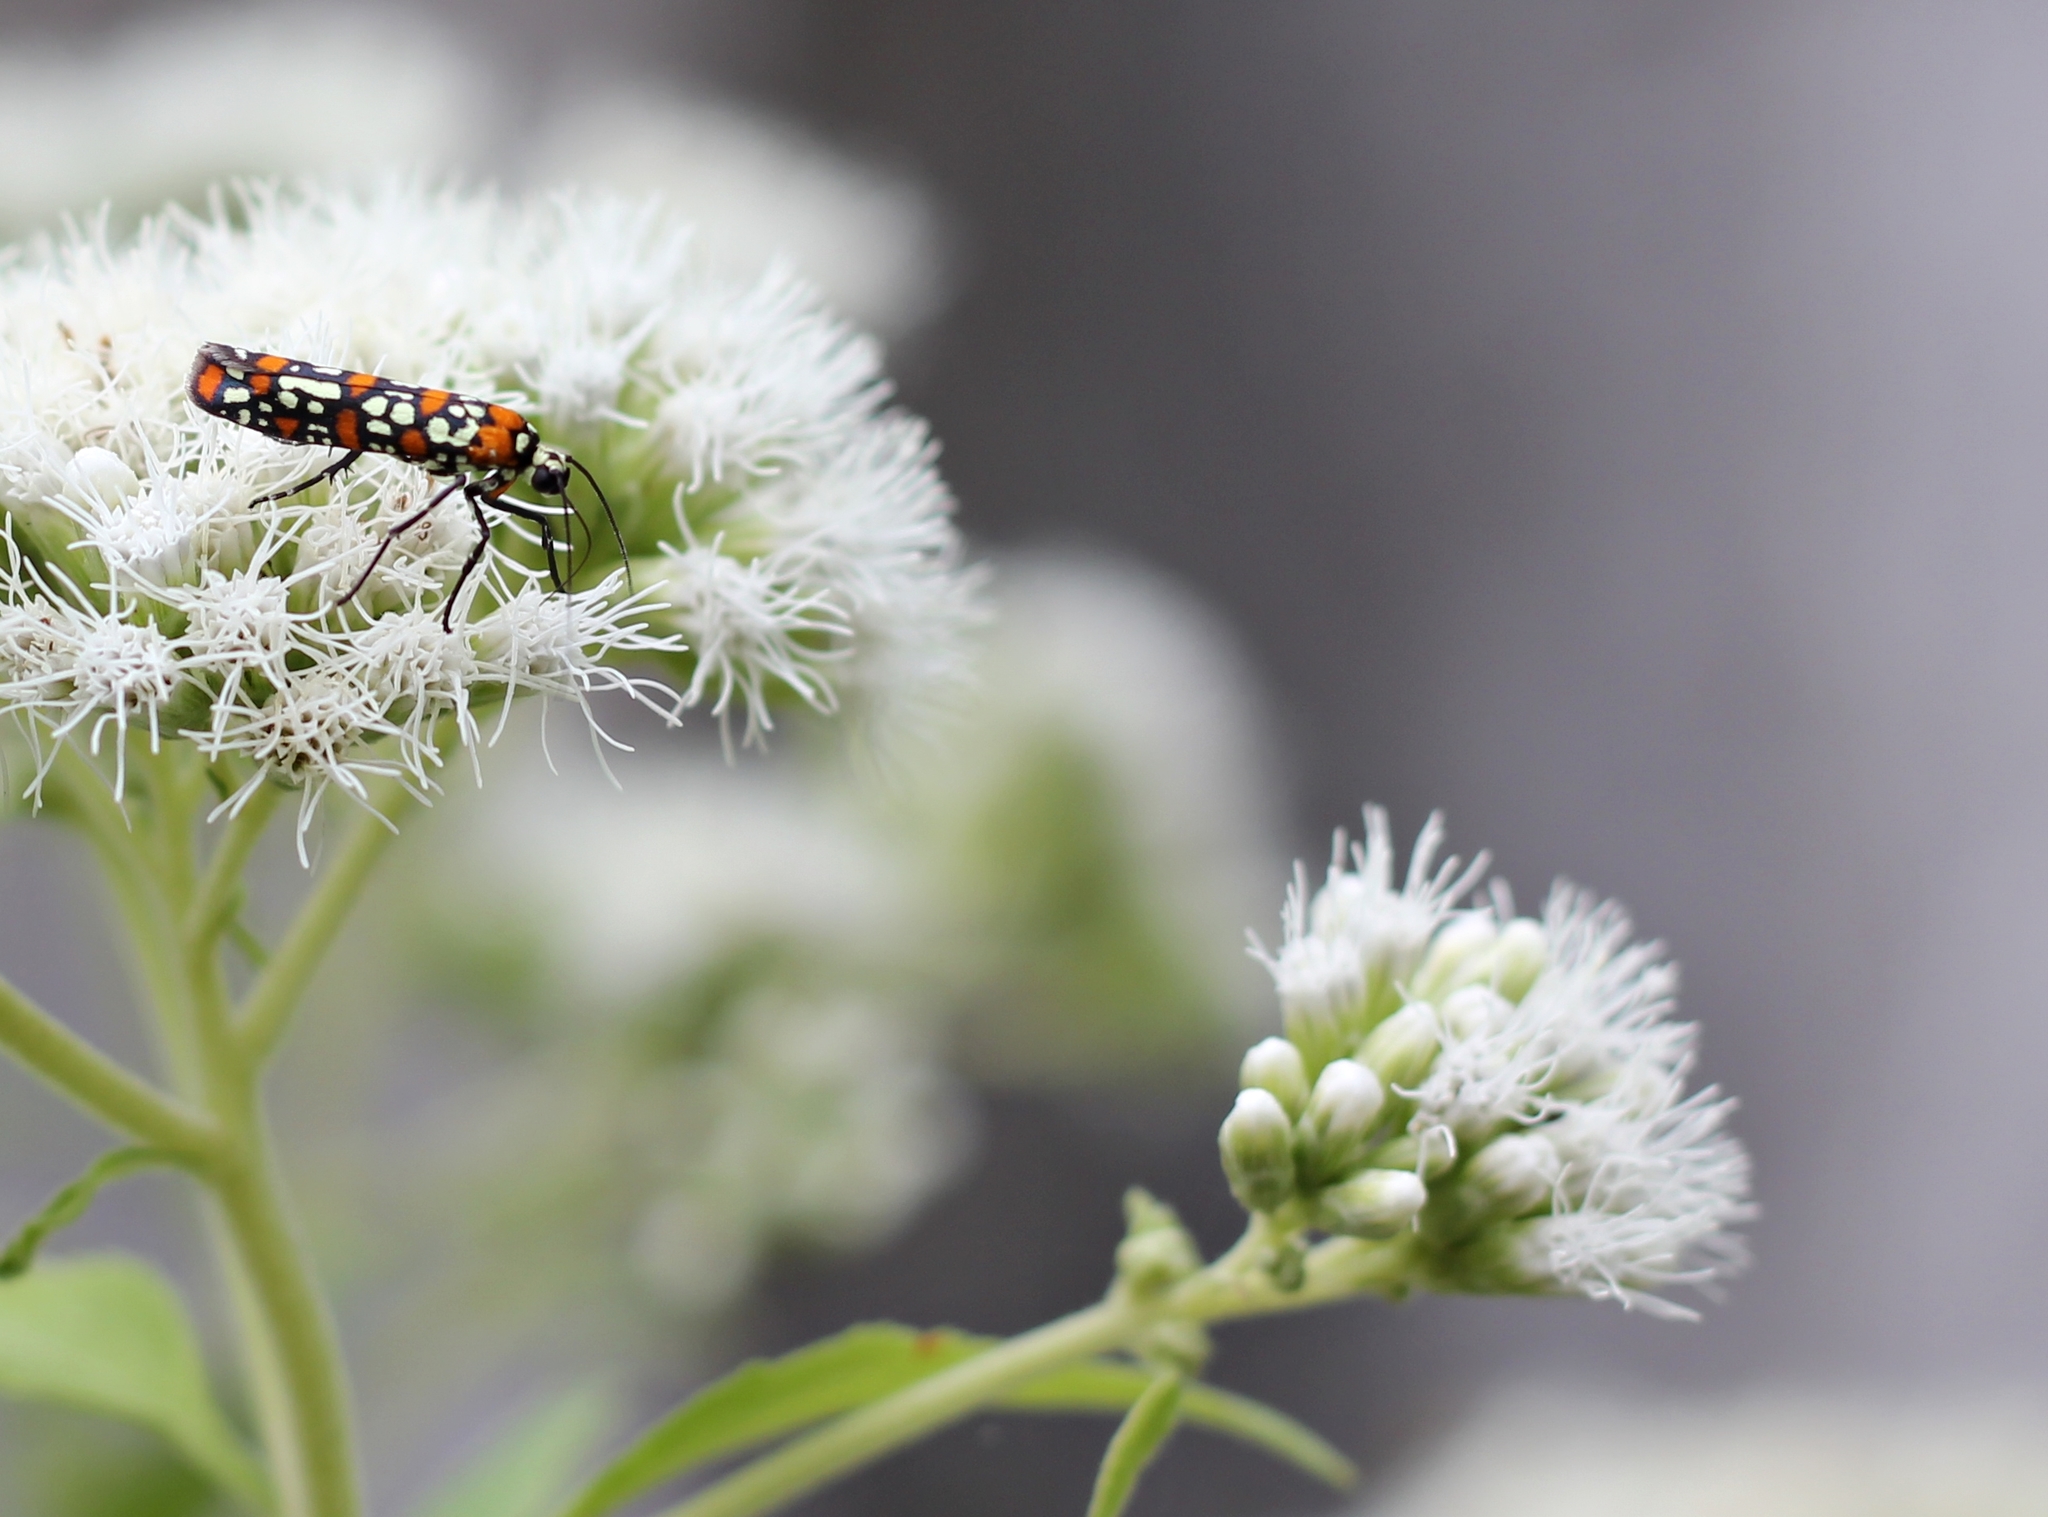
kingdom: Animalia
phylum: Arthropoda
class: Insecta
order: Lepidoptera
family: Attevidae
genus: Atteva
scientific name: Atteva punctella
